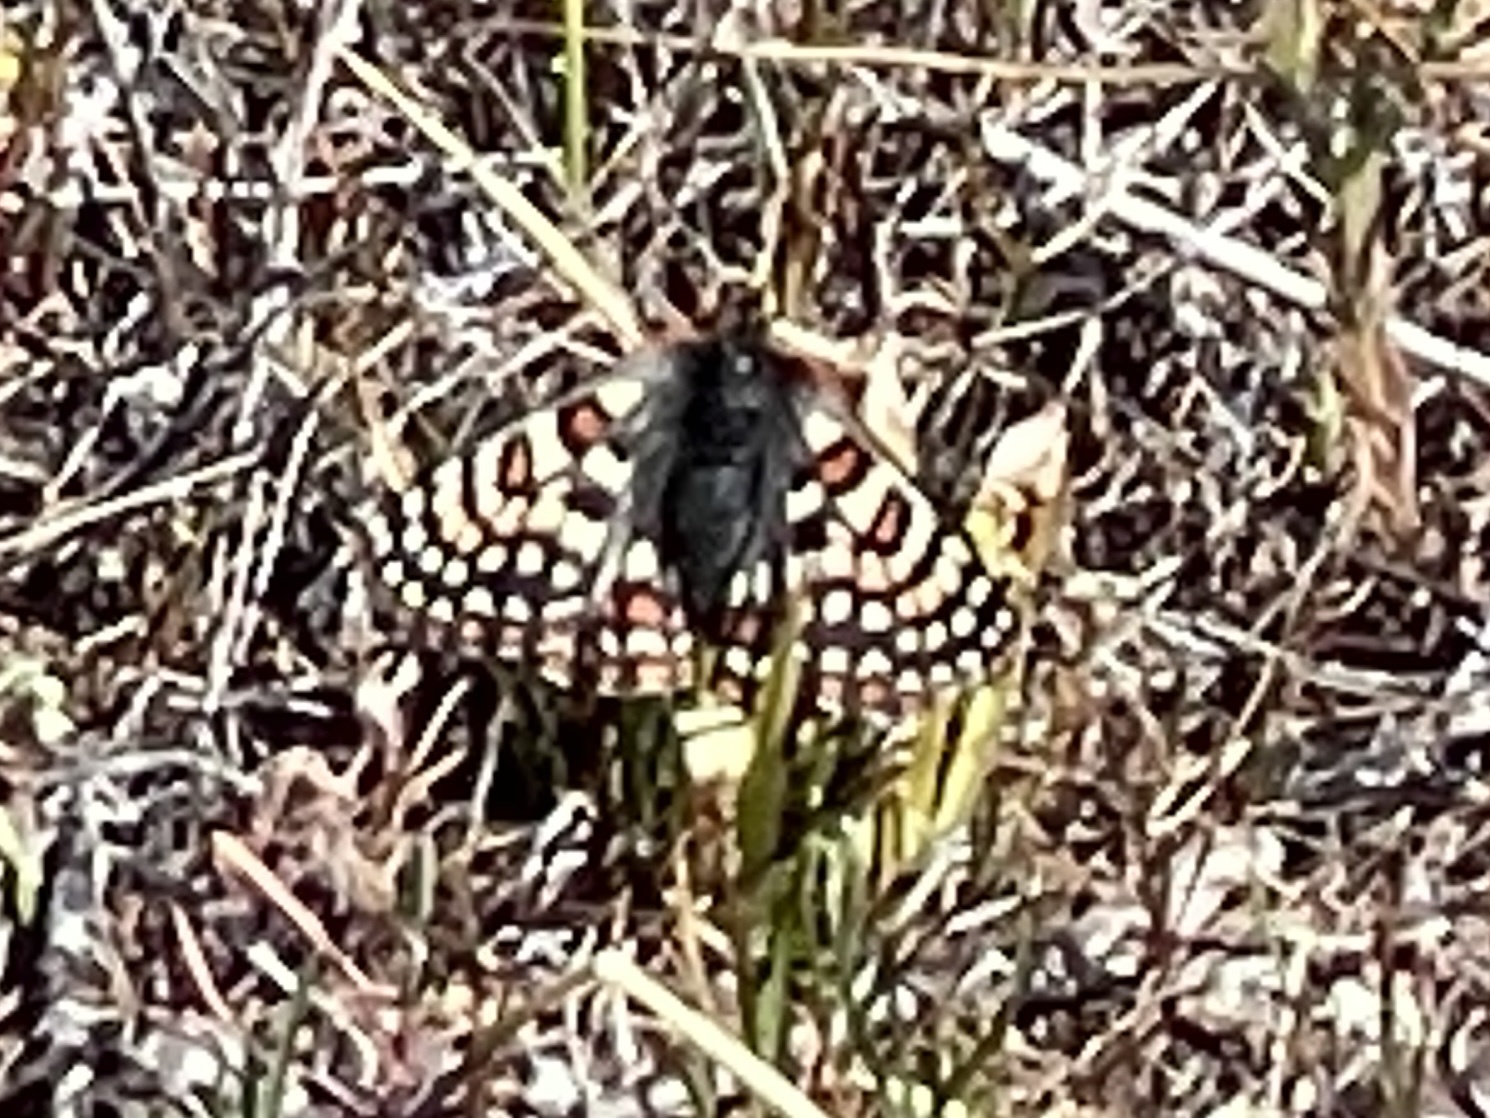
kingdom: Animalia
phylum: Arthropoda
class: Insecta
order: Lepidoptera
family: Nymphalidae
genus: Occidryas
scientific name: Occidryas editha
